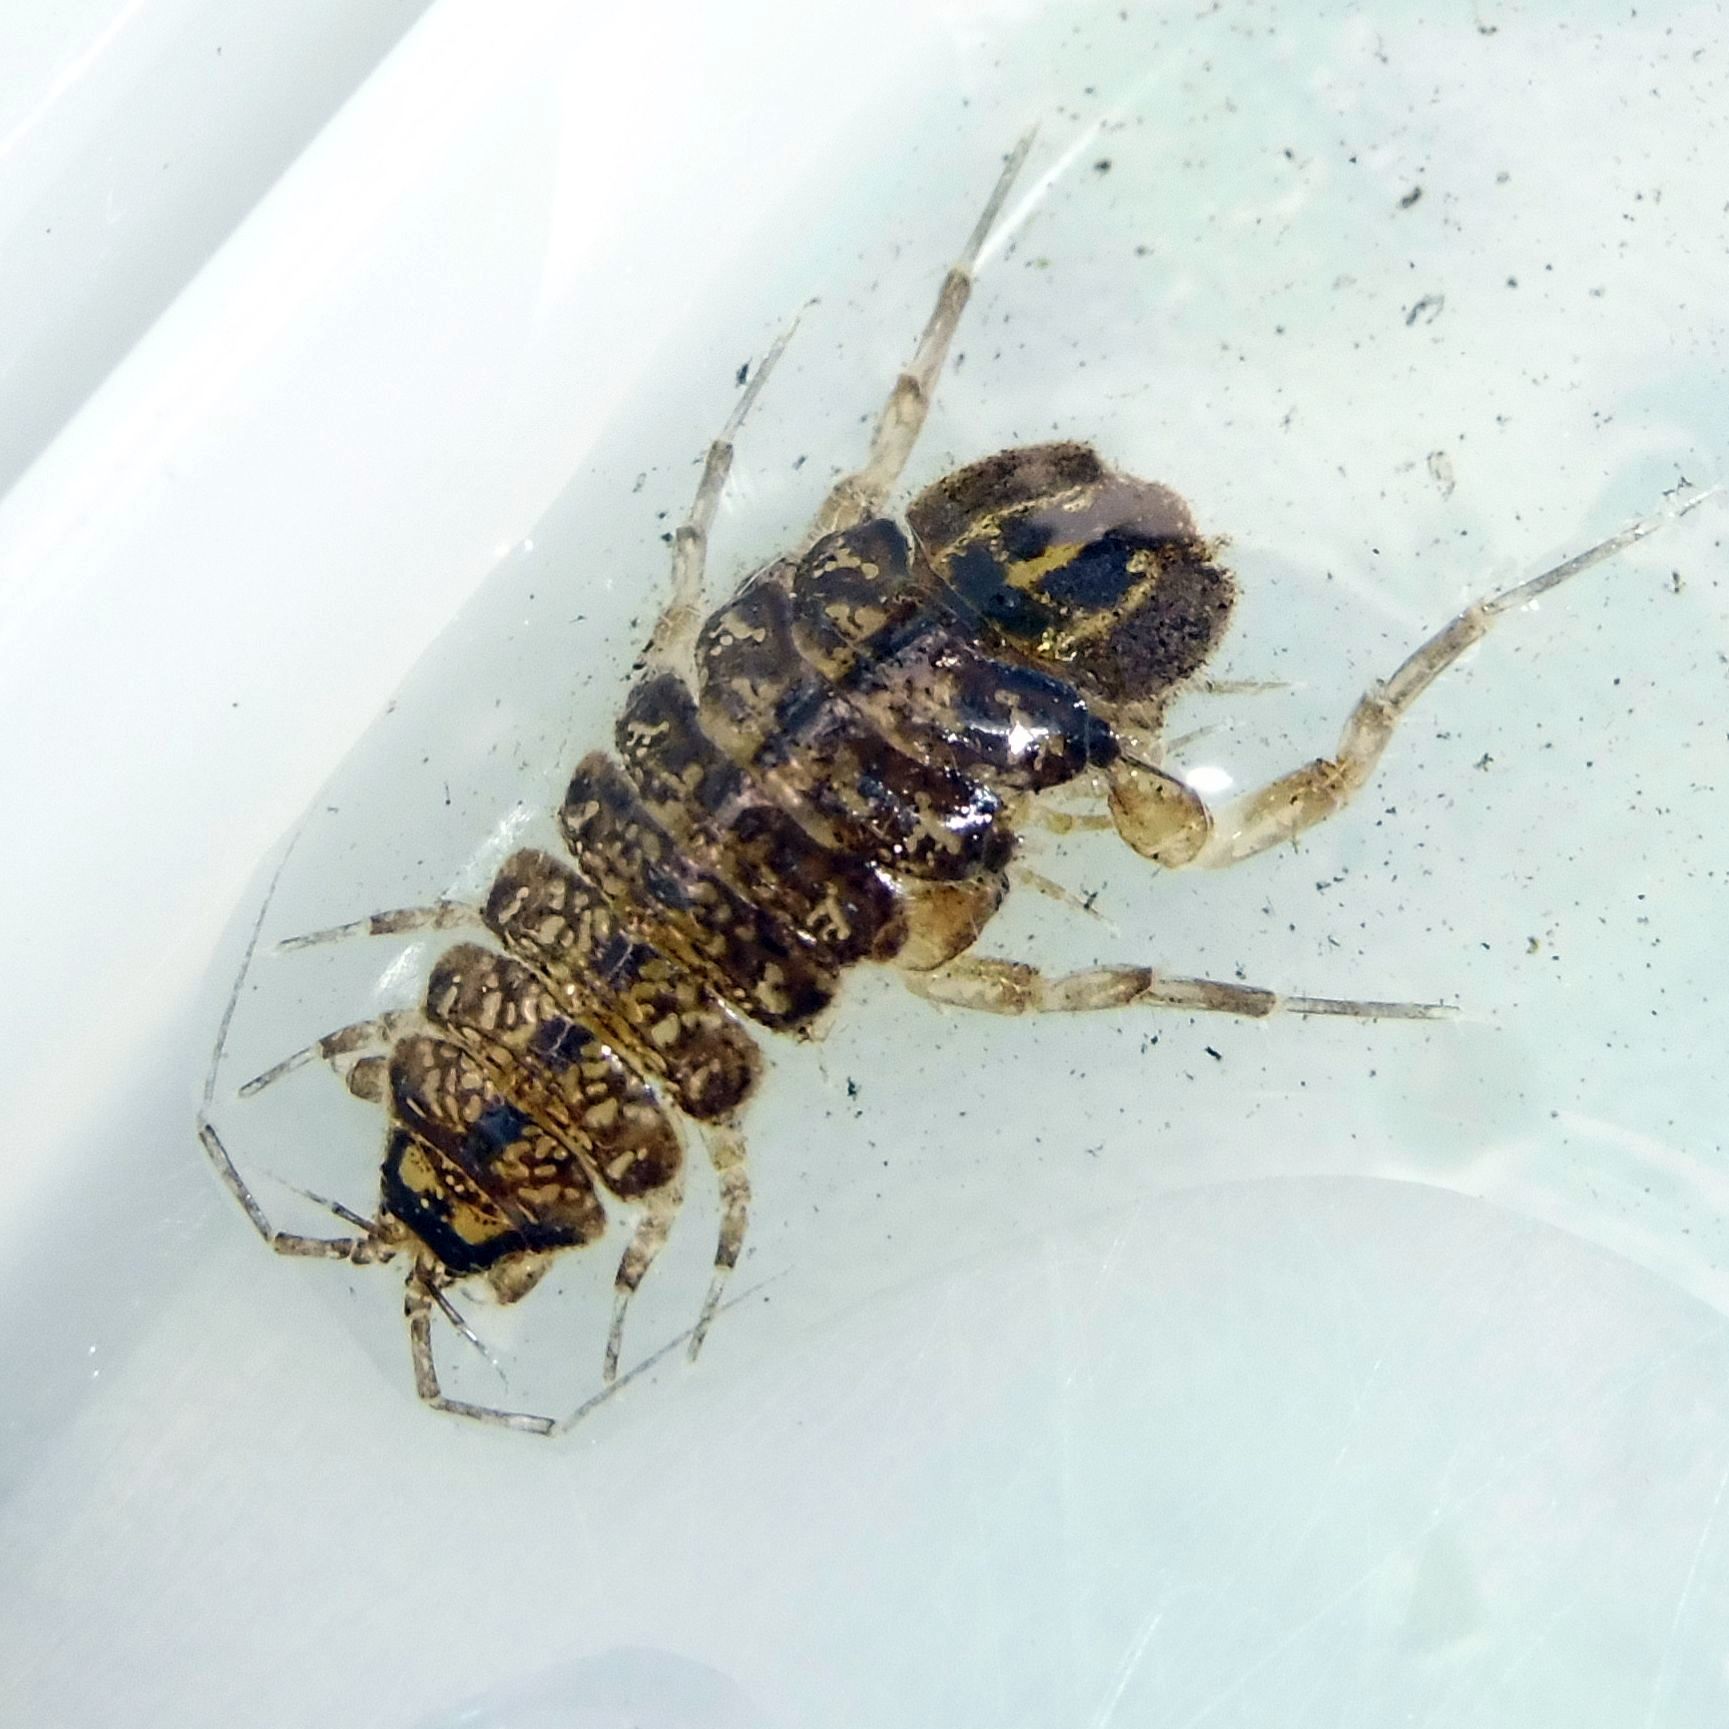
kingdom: Animalia
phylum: Arthropoda
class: Malacostraca
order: Isopoda
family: Asellidae
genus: Asellus
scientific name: Asellus aquaticus
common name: Water hog lice/slaters
